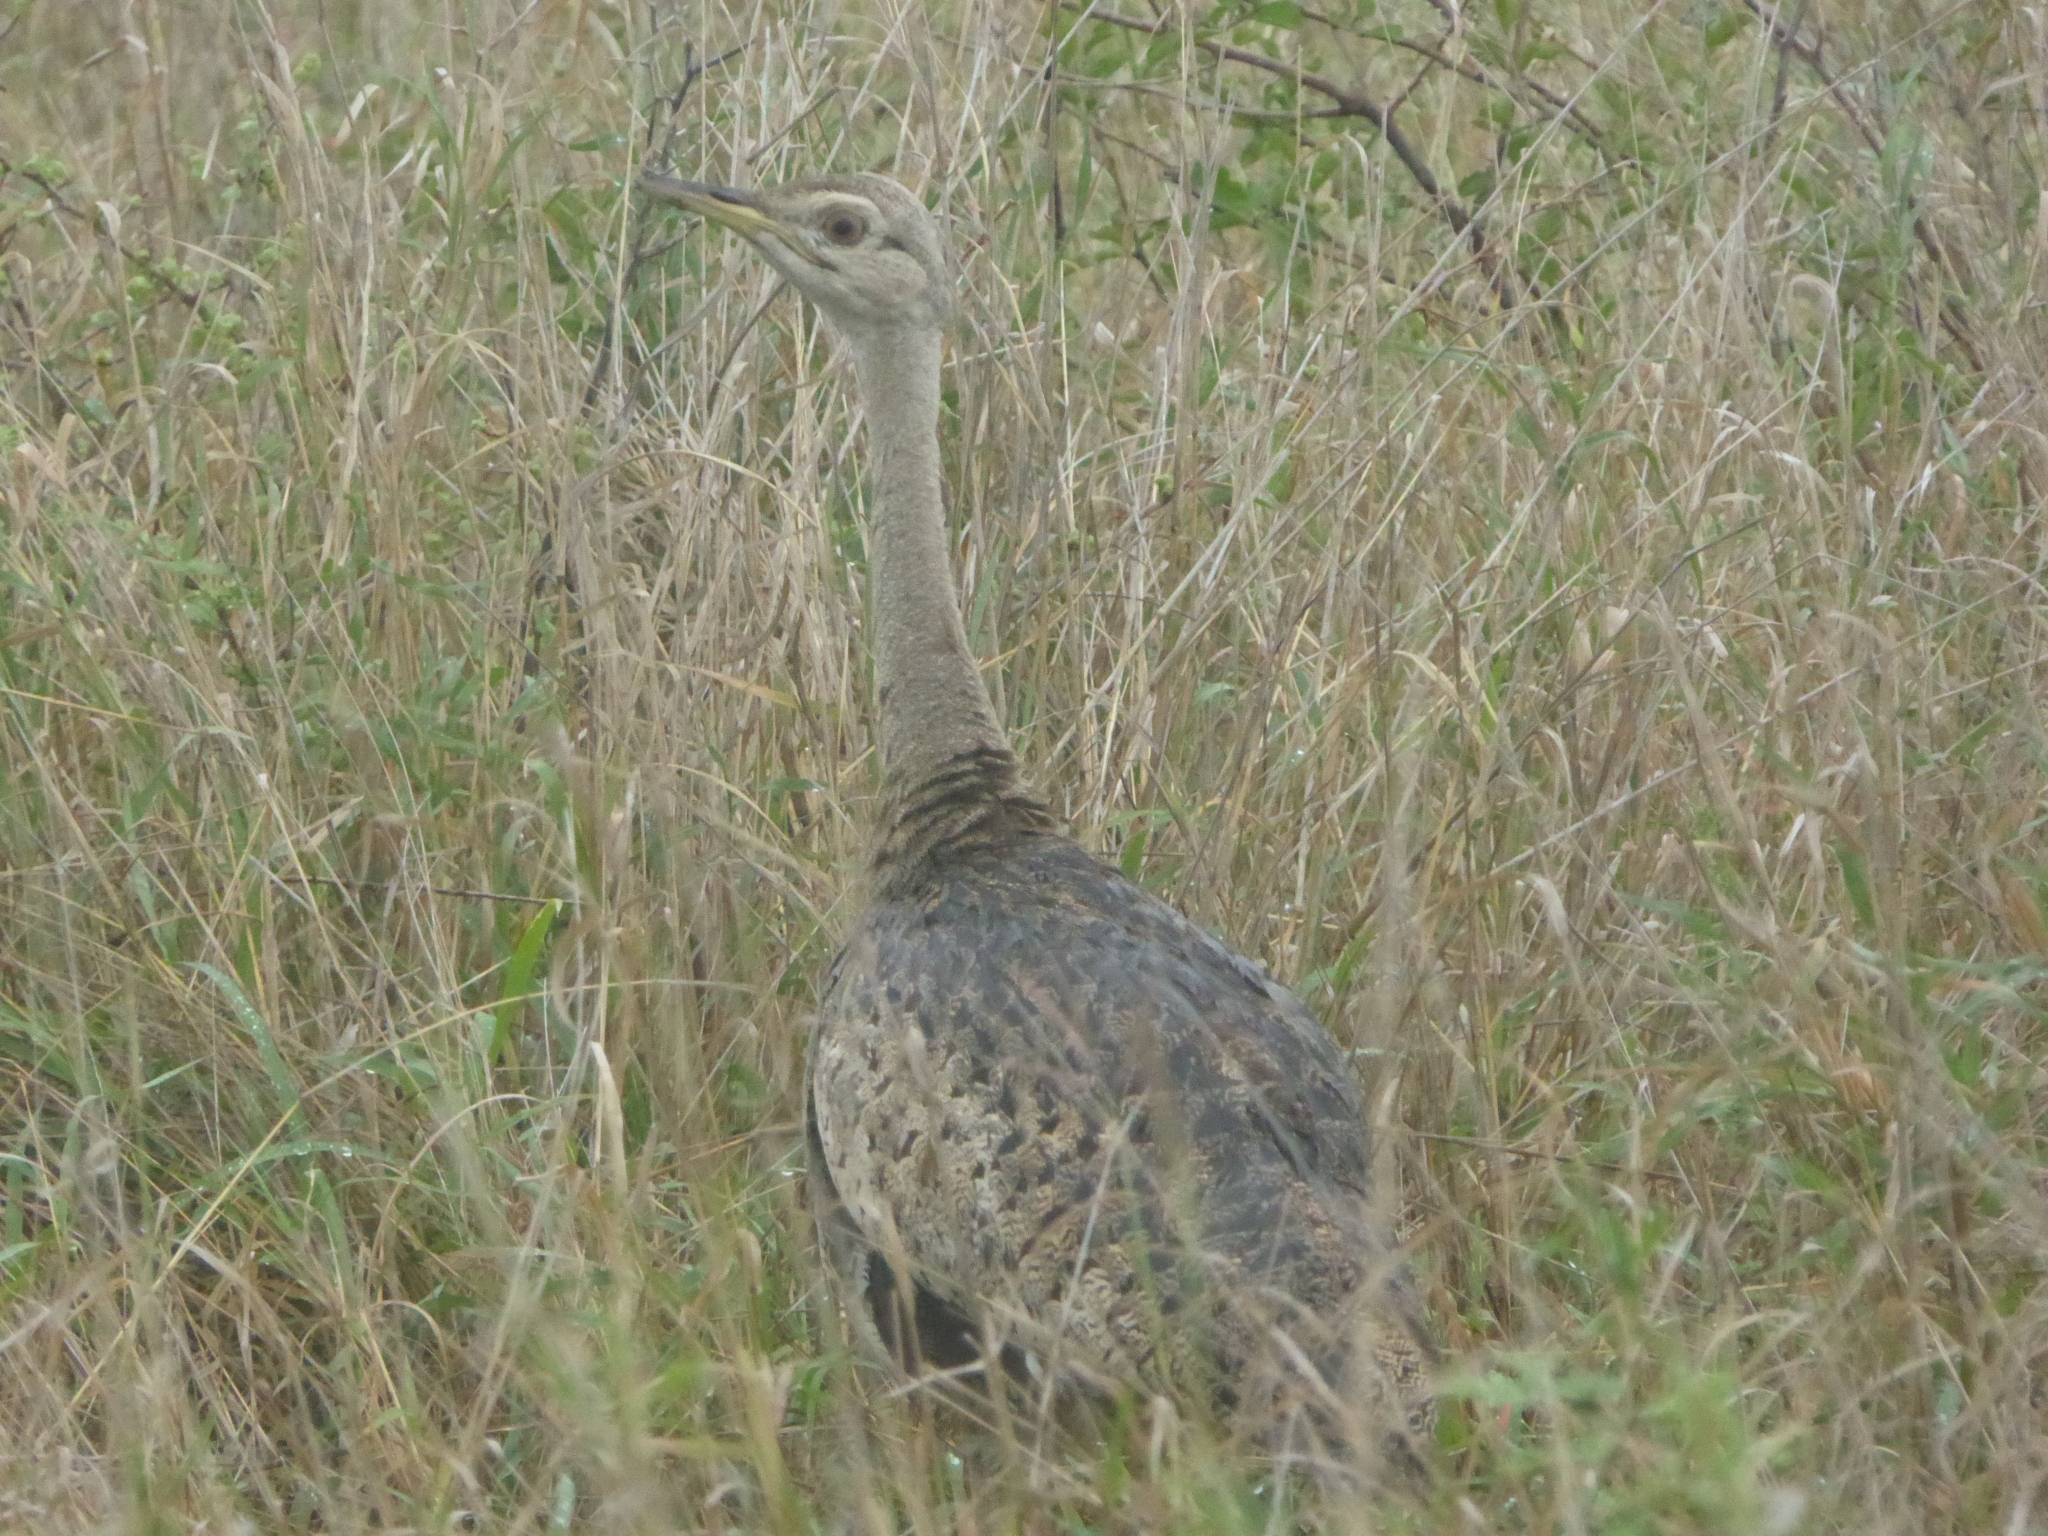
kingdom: Animalia
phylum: Chordata
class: Aves
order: Otidiformes
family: Otididae
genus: Lissotis
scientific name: Lissotis melanogaster
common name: Black-bellied bustard
